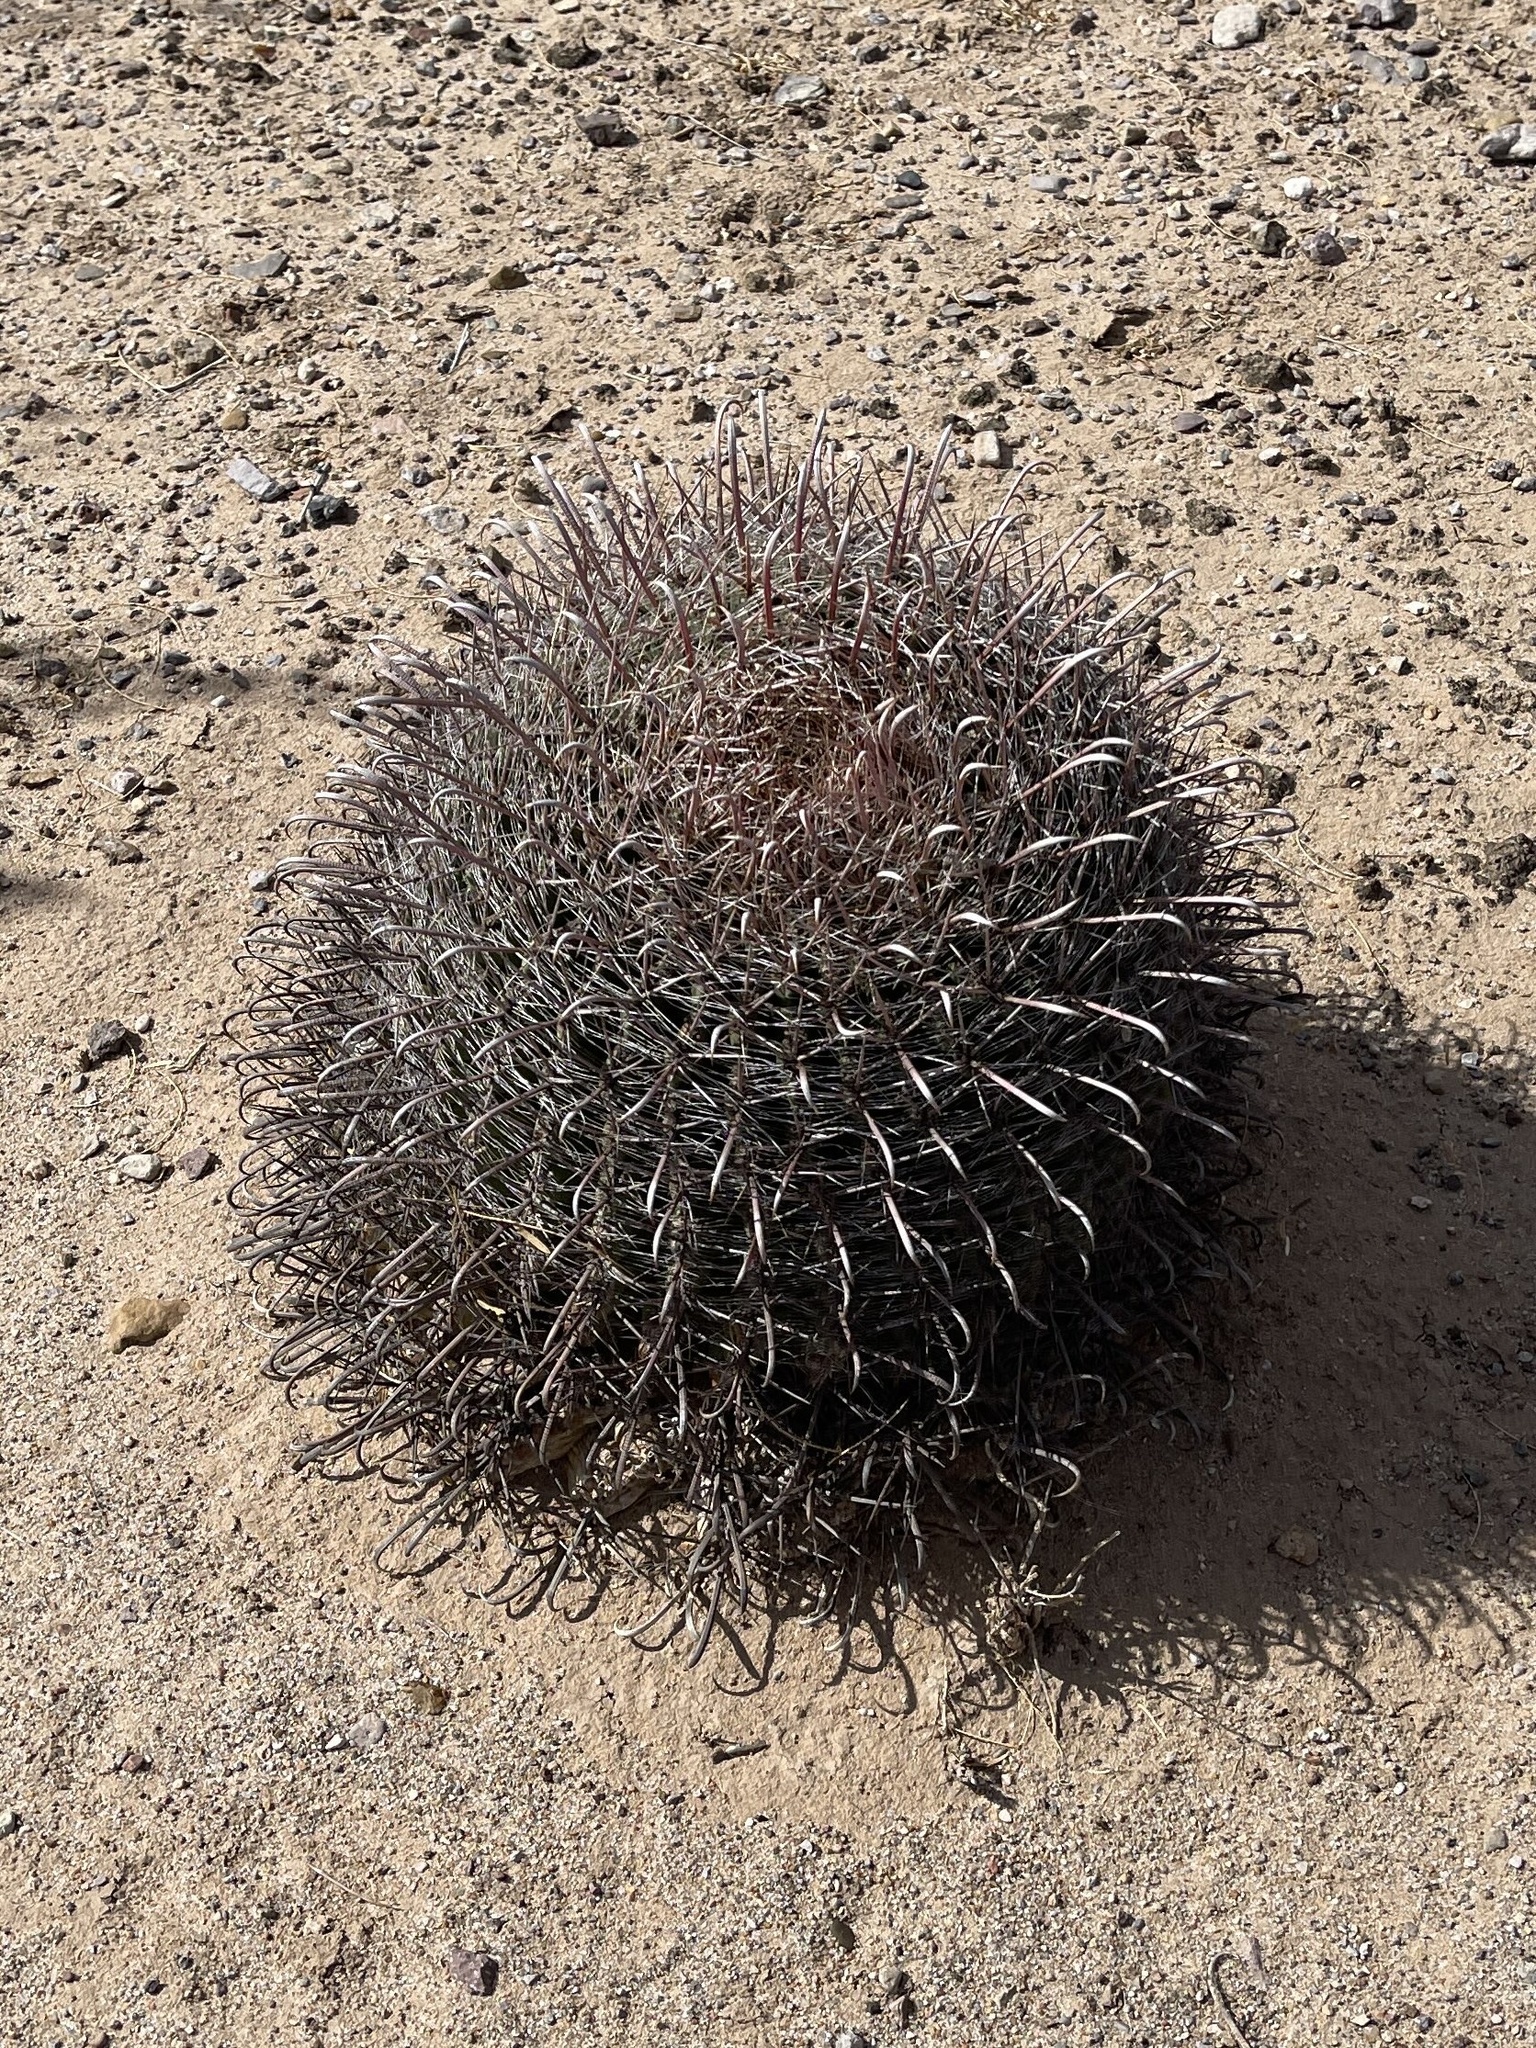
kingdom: Plantae
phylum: Tracheophyta
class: Magnoliopsida
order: Caryophyllales
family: Cactaceae
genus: Ferocactus
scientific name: Ferocactus wislizeni
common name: Candy barrel cactus
